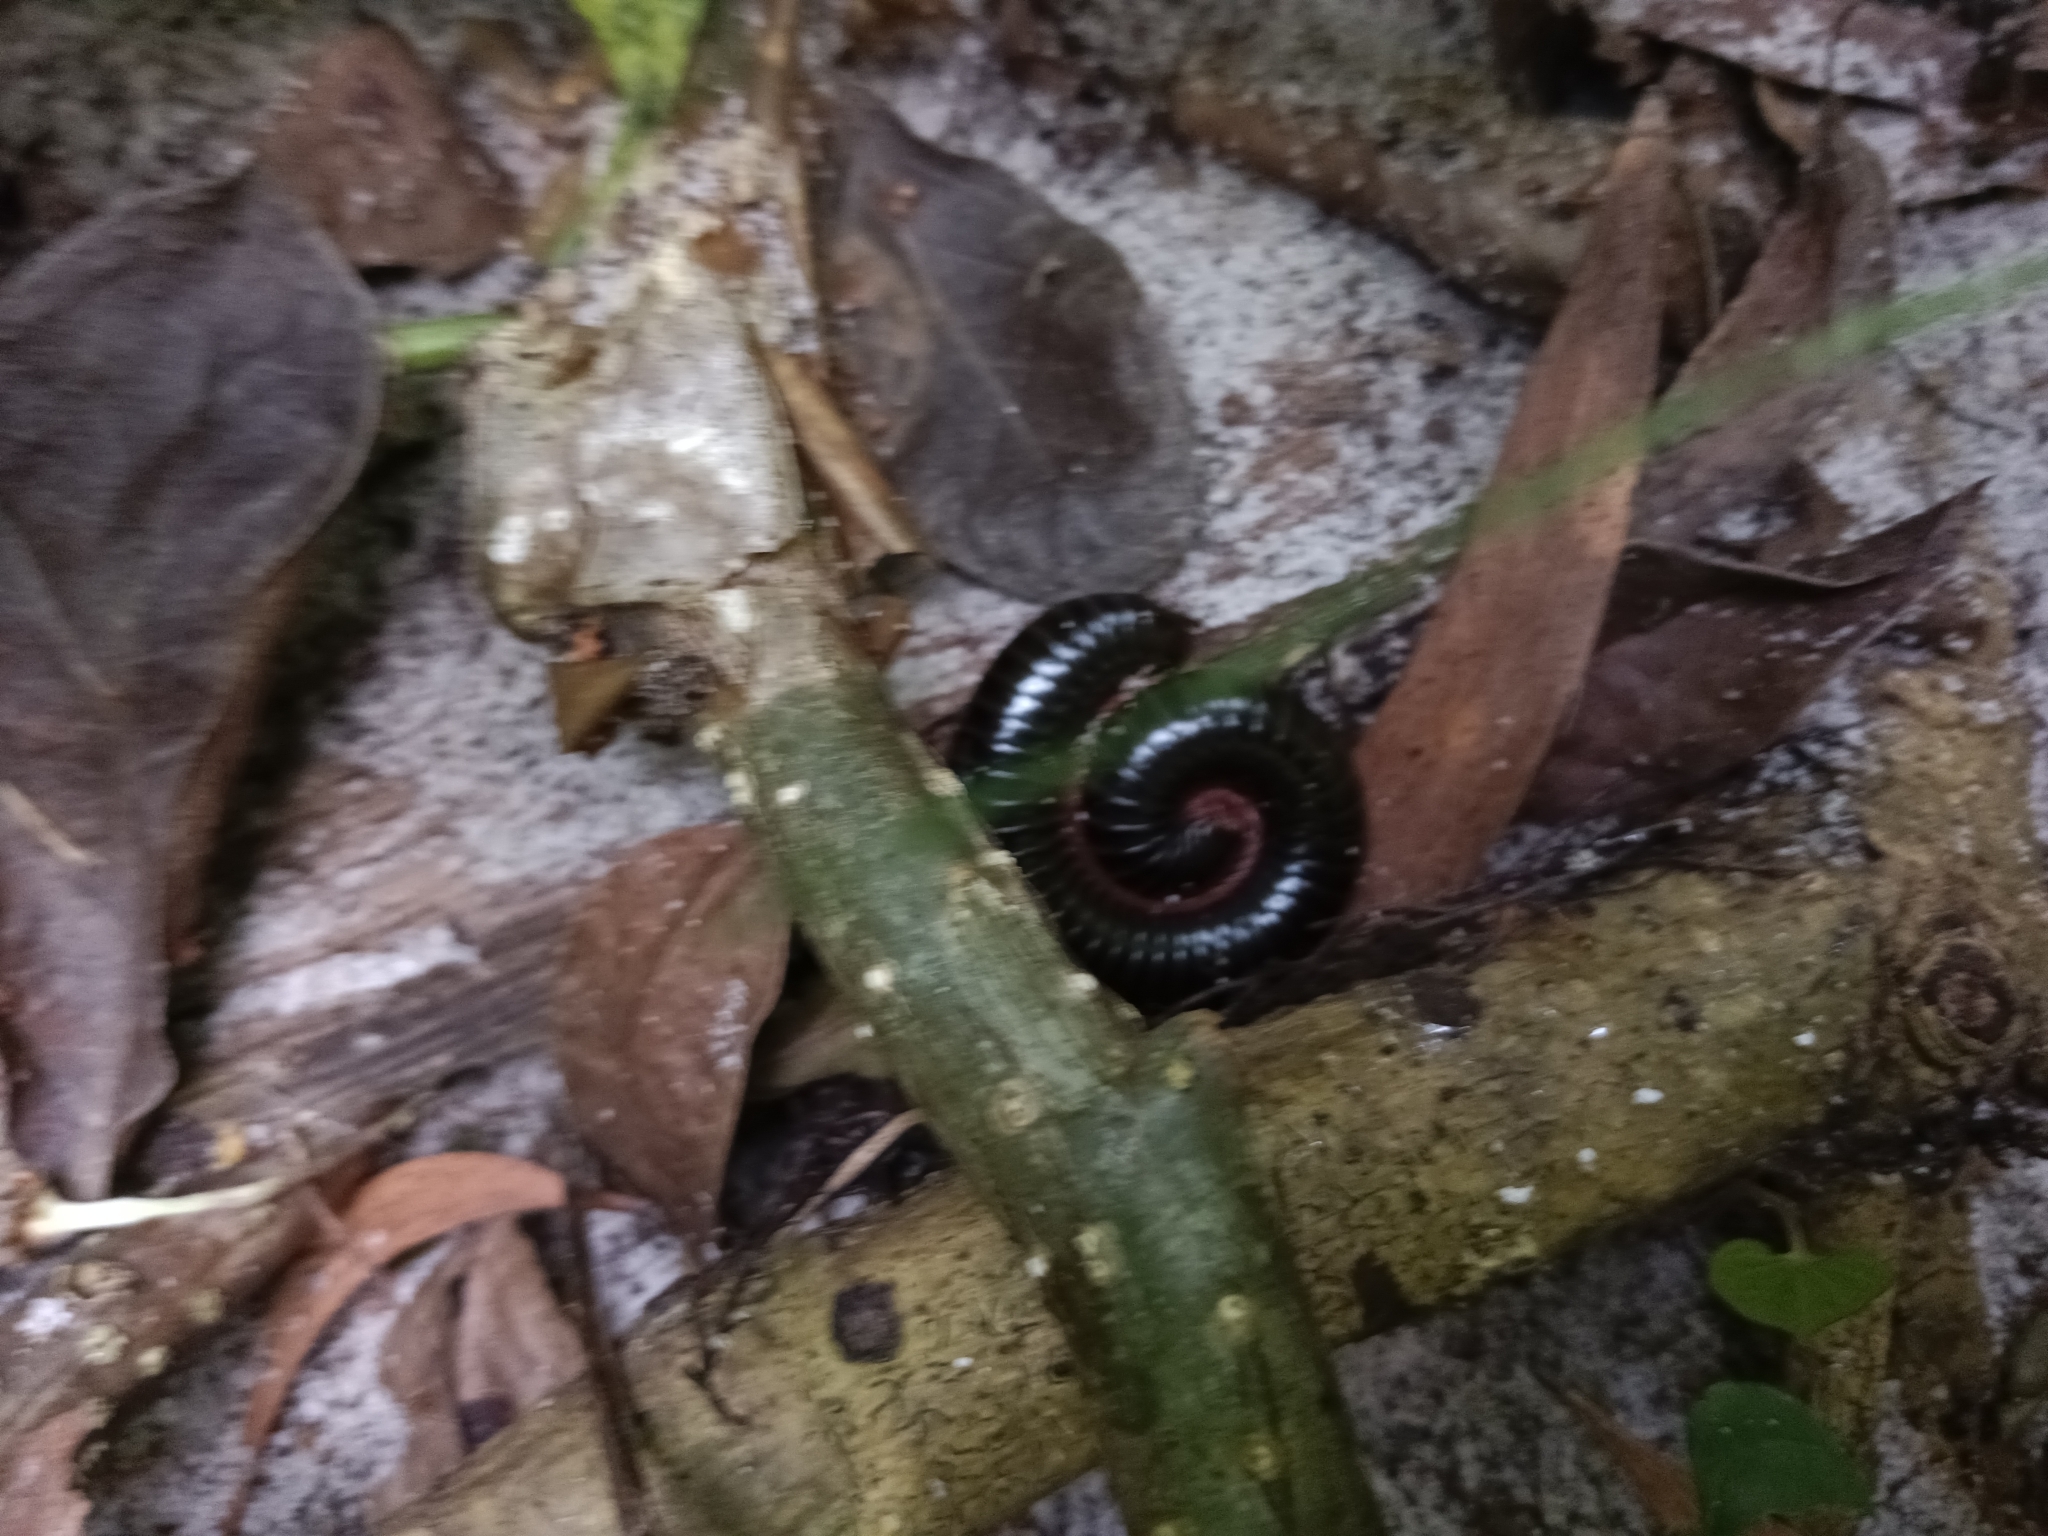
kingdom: Animalia
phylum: Arthropoda
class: Diplopoda
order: Spirostreptida
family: Harpagophoridae
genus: Phyllogonostreptus
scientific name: Phyllogonostreptus nigrolabiatus
